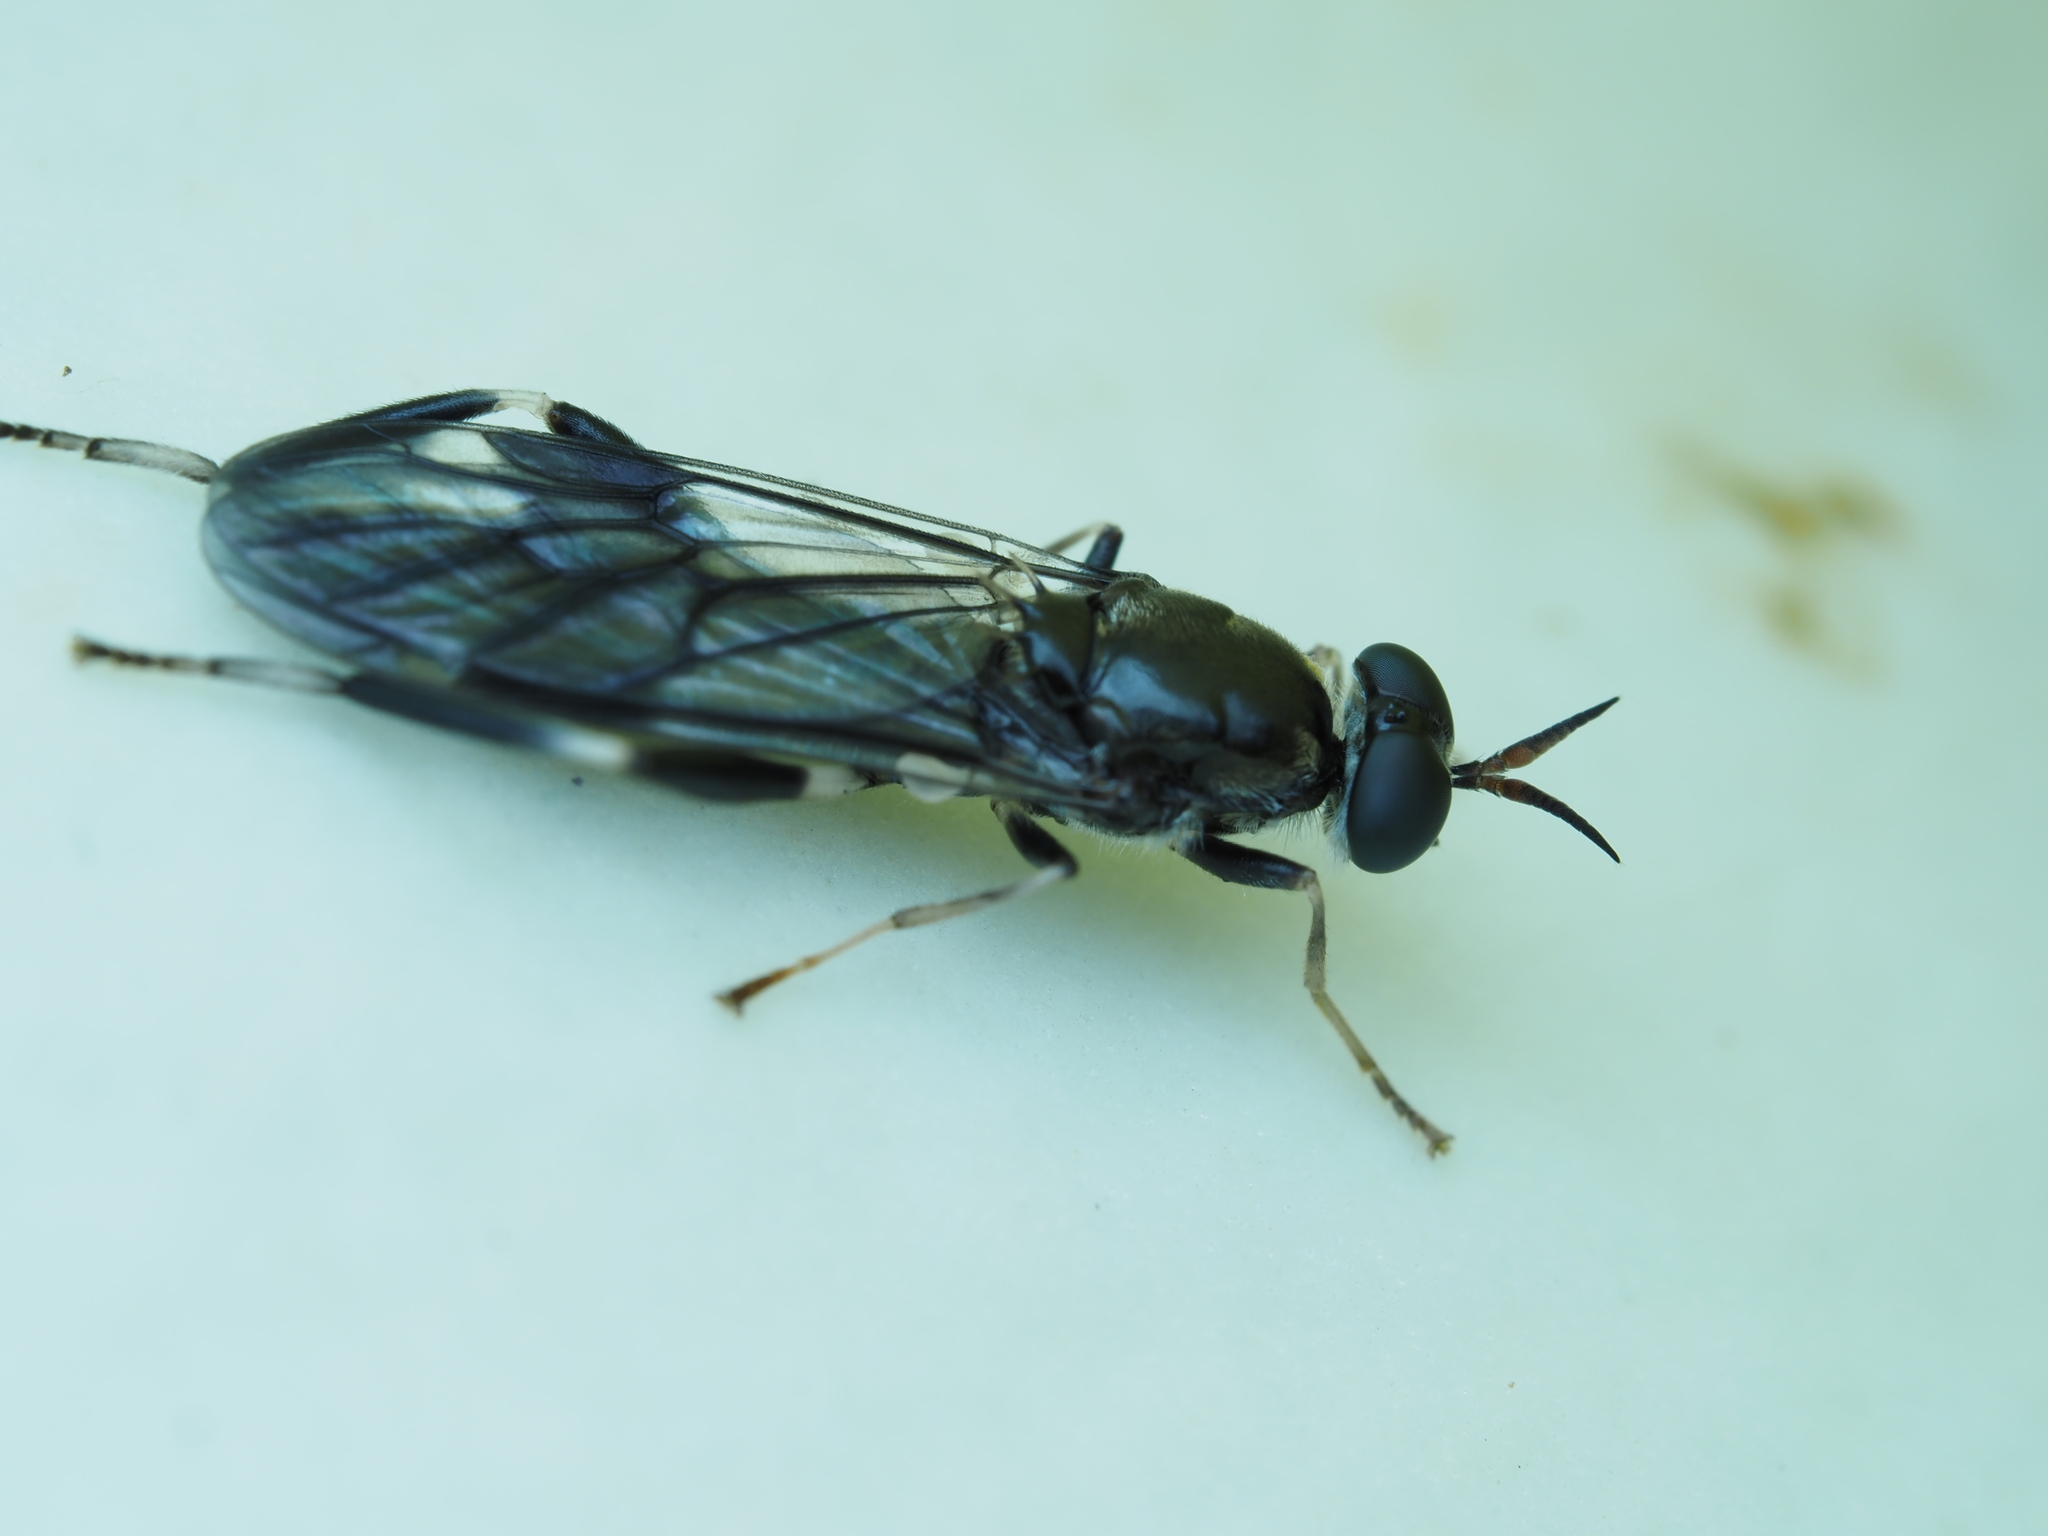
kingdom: Animalia
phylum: Arthropoda
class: Insecta
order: Diptera
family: Stratiomyidae
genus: Exaireta
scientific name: Exaireta spinigera
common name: Blue soldier fly
